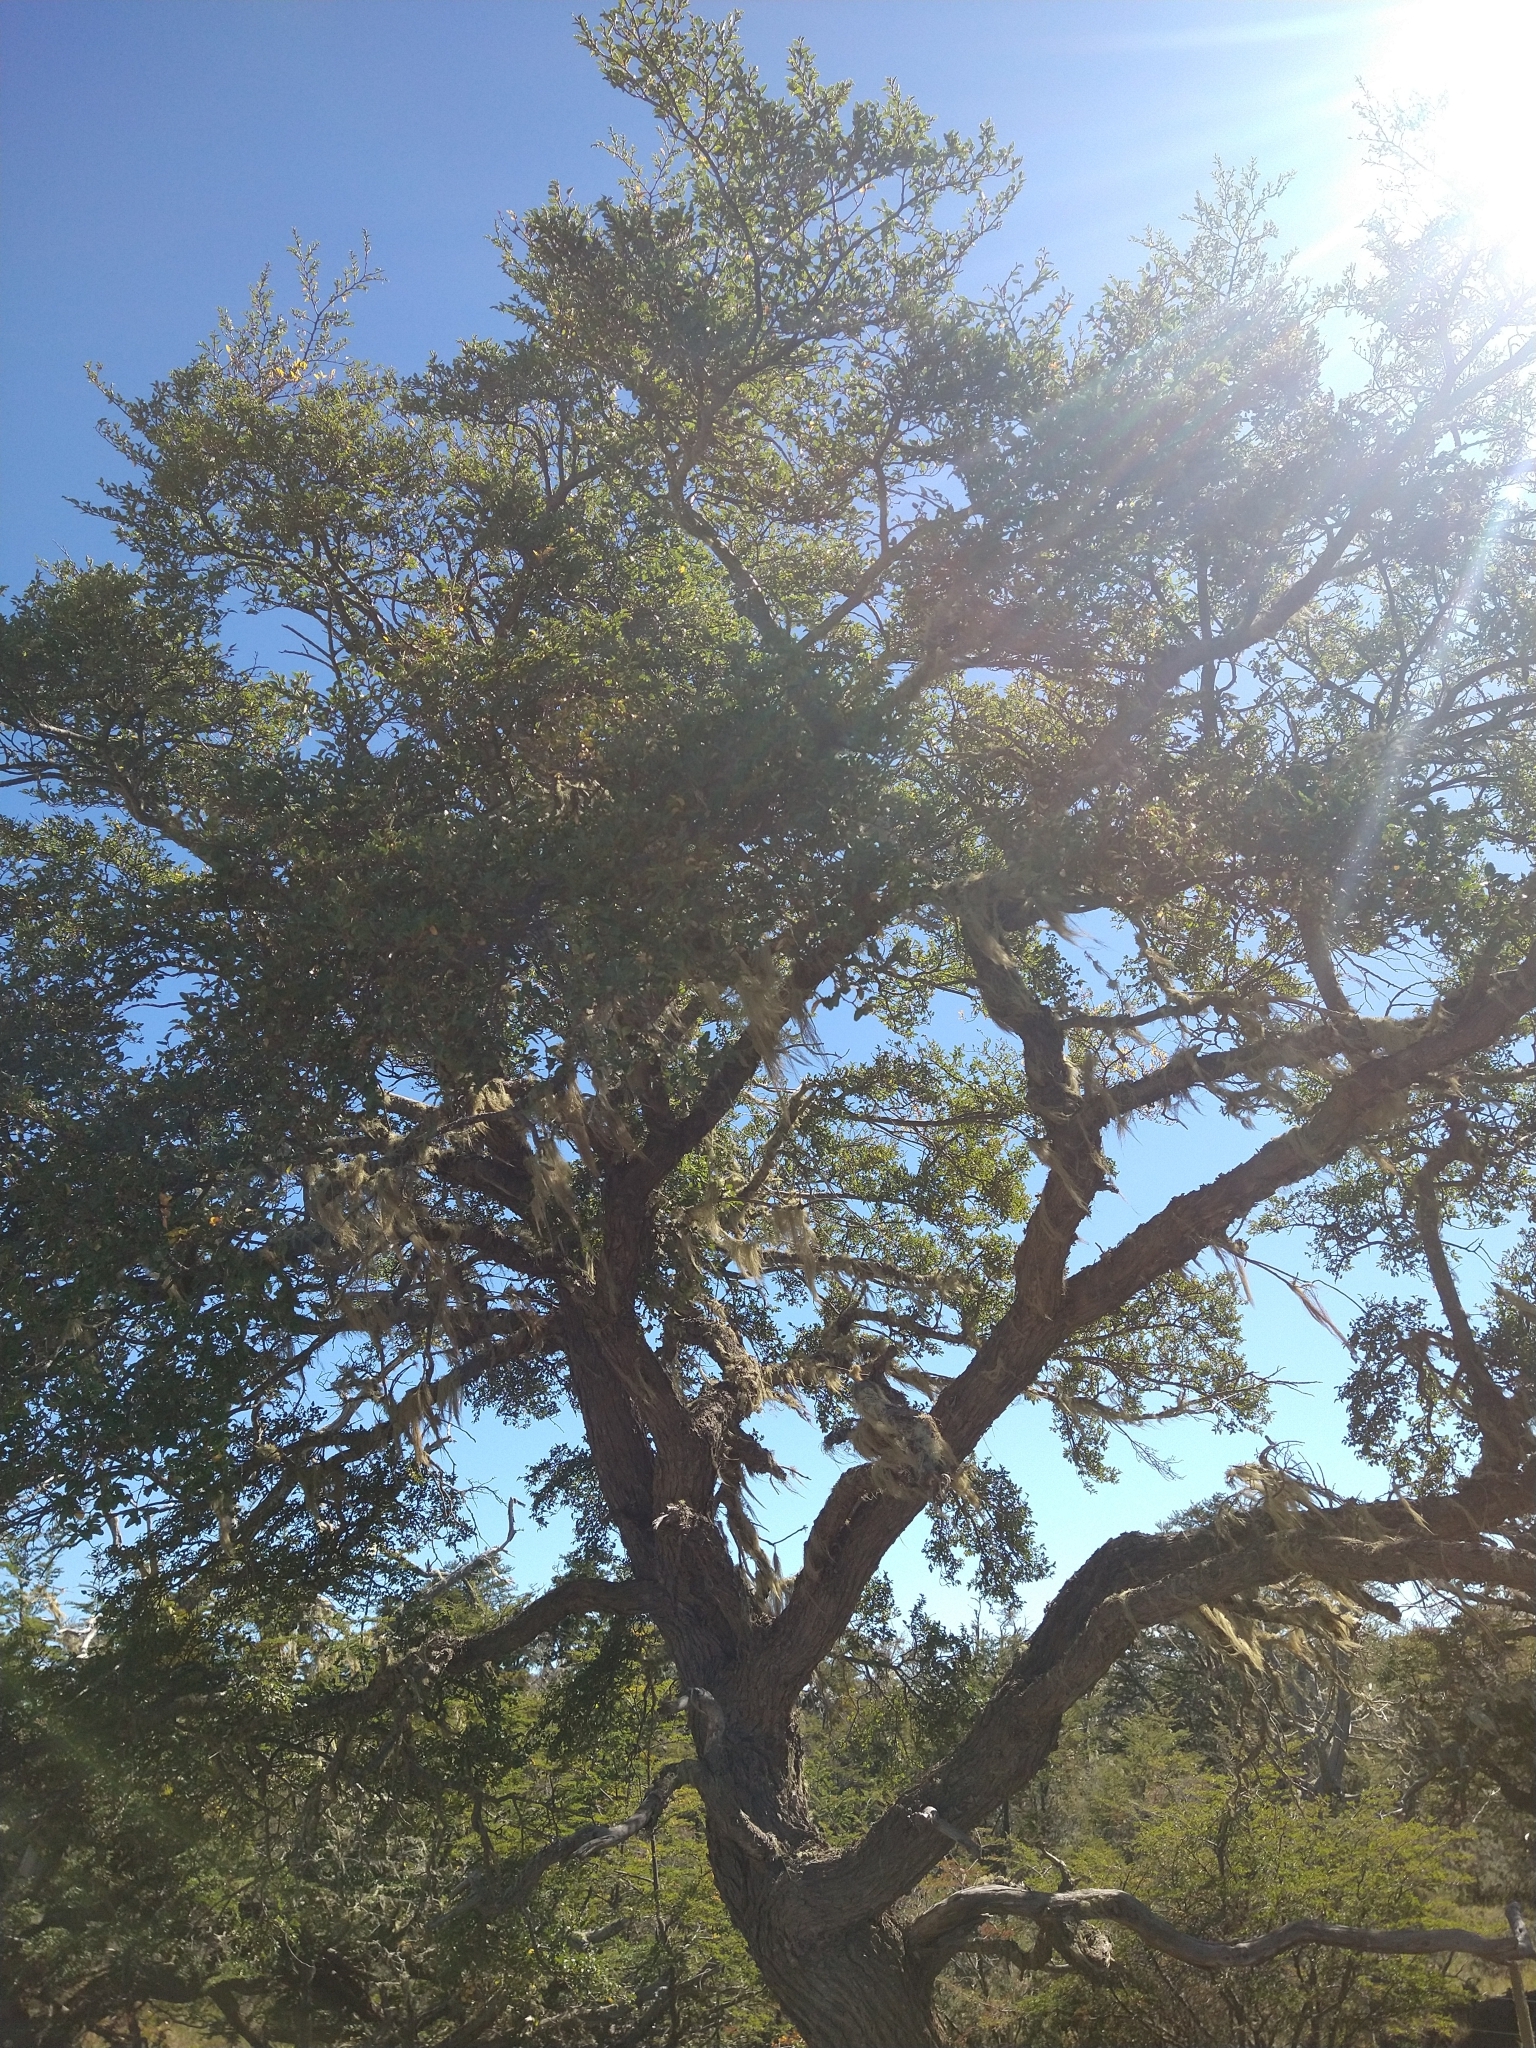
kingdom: Plantae
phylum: Tracheophyta
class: Magnoliopsida
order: Fagales
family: Nothofagaceae
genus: Nothofagus
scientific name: Nothofagus antarctica
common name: Antarctic beech
